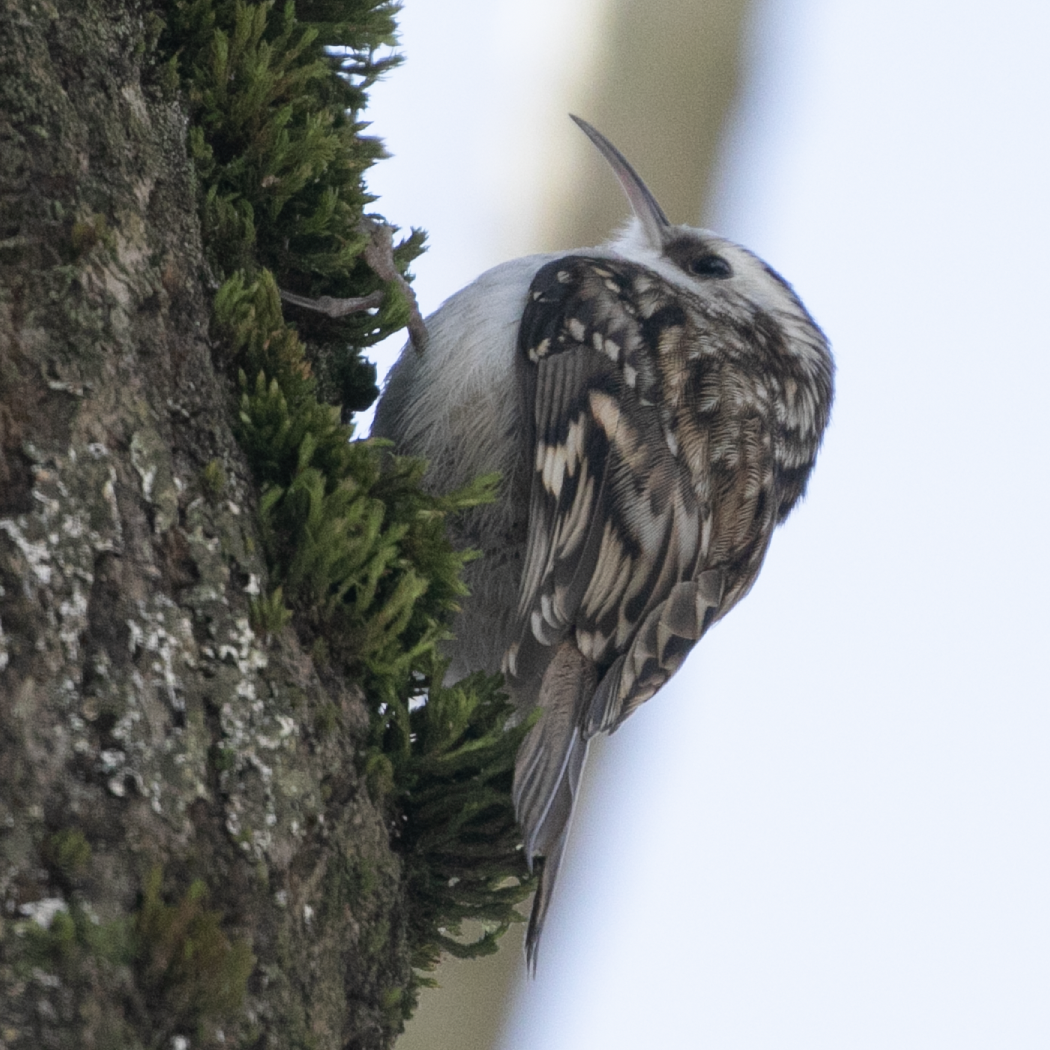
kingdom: Animalia
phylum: Chordata
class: Aves
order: Passeriformes
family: Certhiidae
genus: Certhia
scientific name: Certhia familiaris
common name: Eurasian treecreeper
